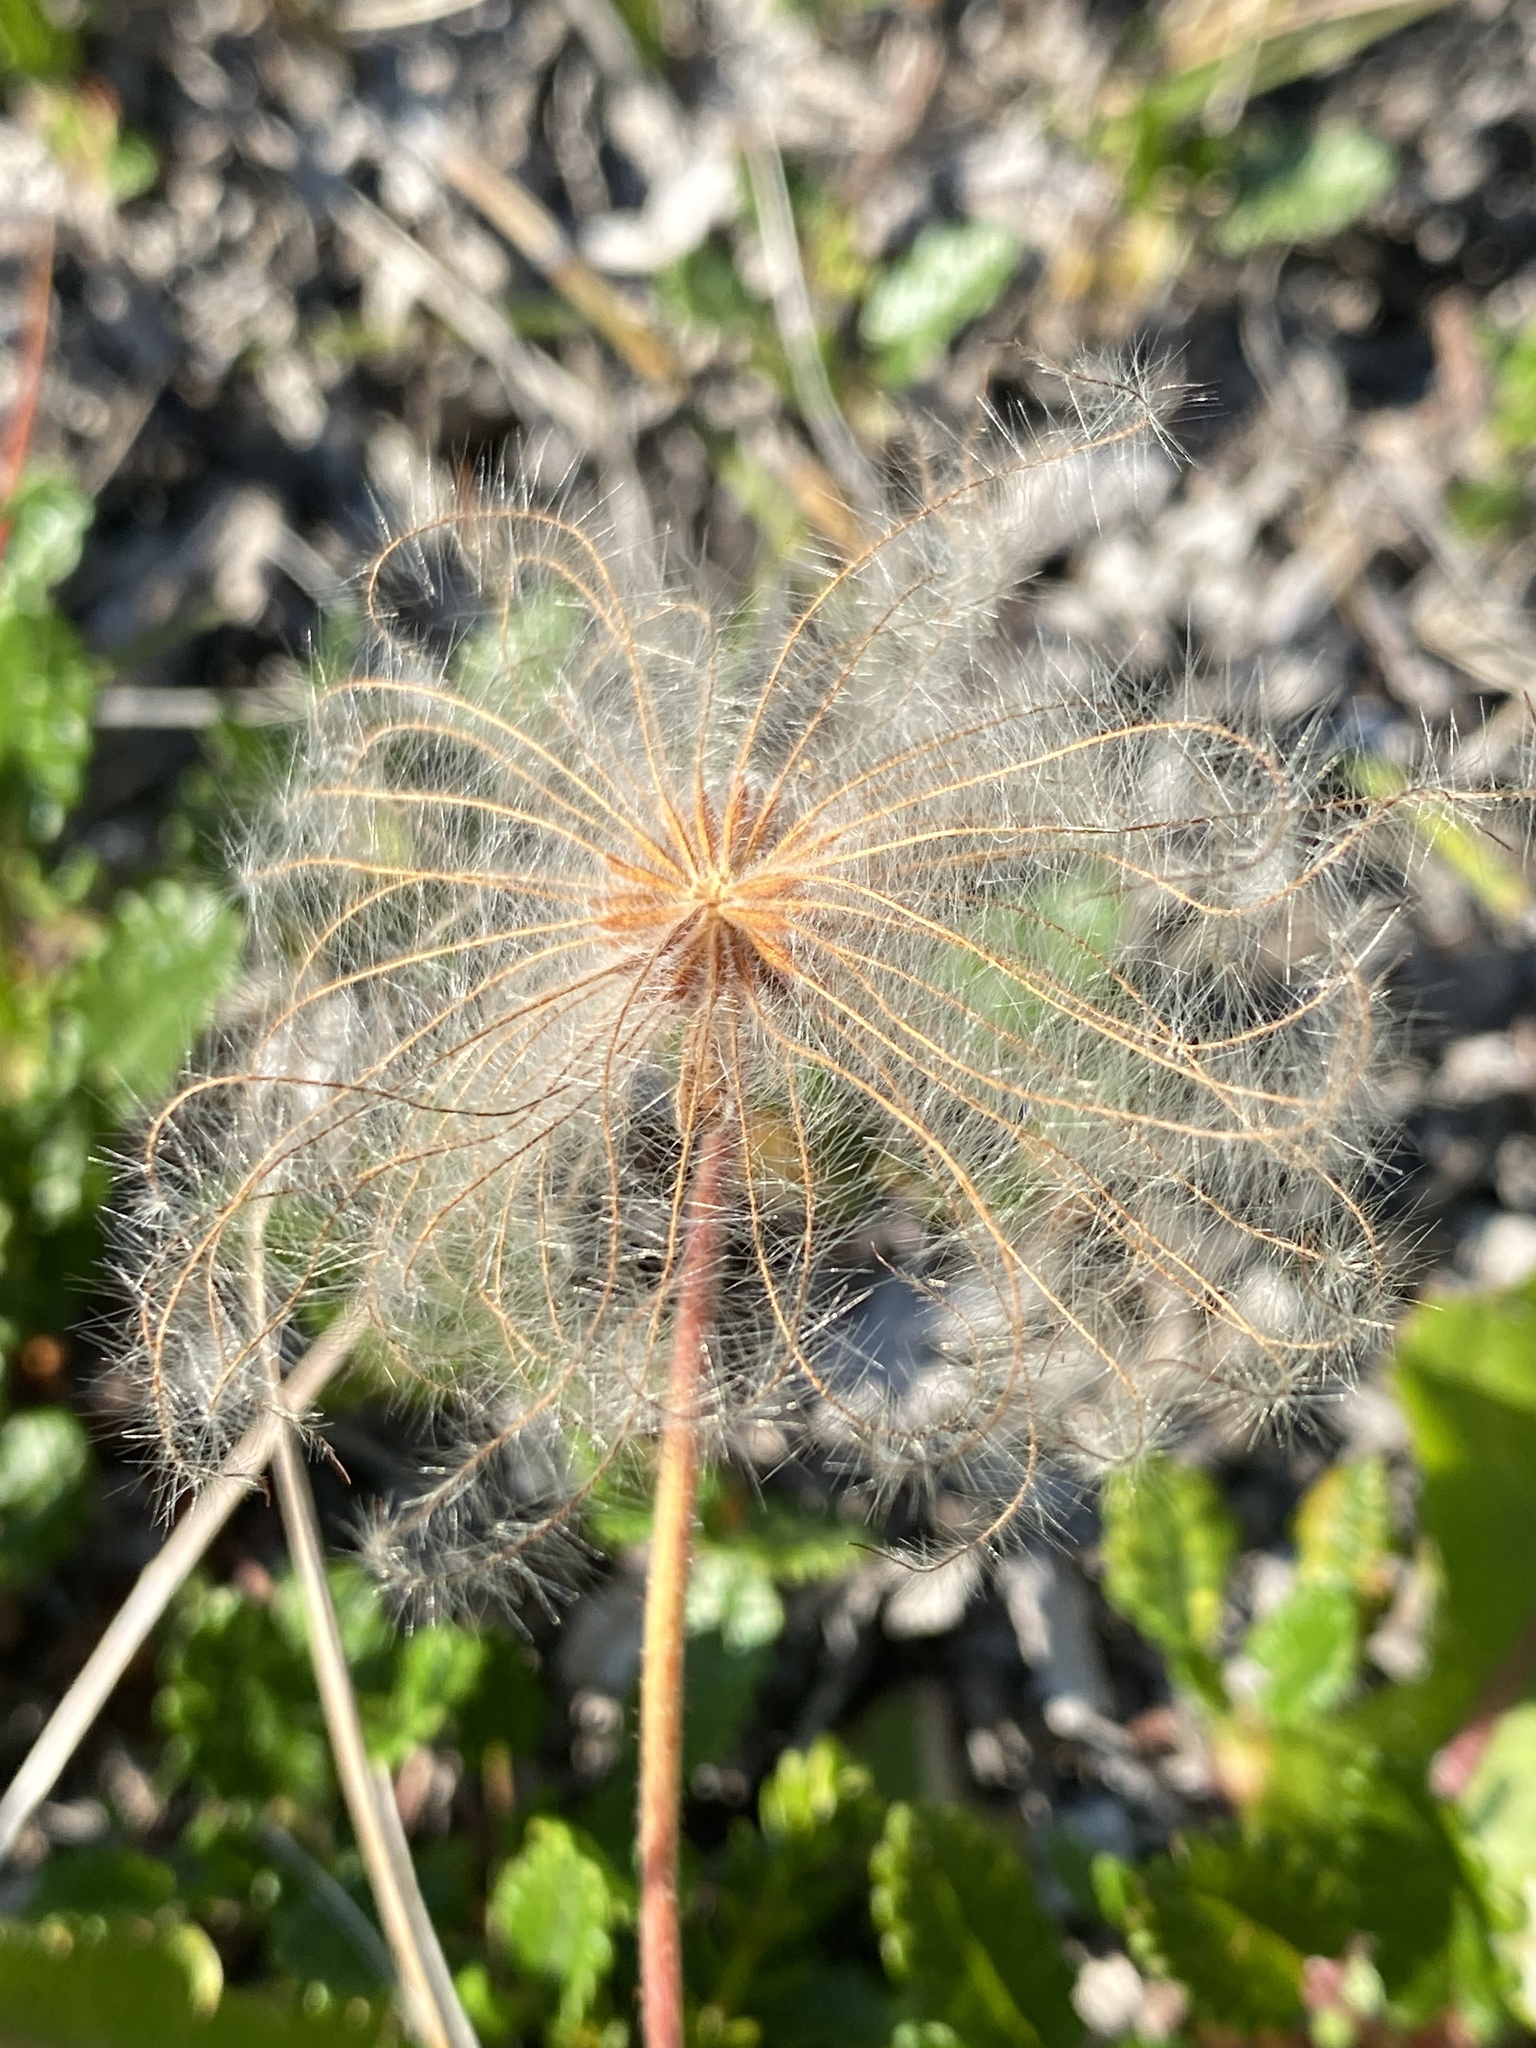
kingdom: Plantae
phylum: Tracheophyta
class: Magnoliopsida
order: Rosales
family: Rosaceae
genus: Dryas
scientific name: Dryas octopetala
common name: Eight-petal mountain-avens
